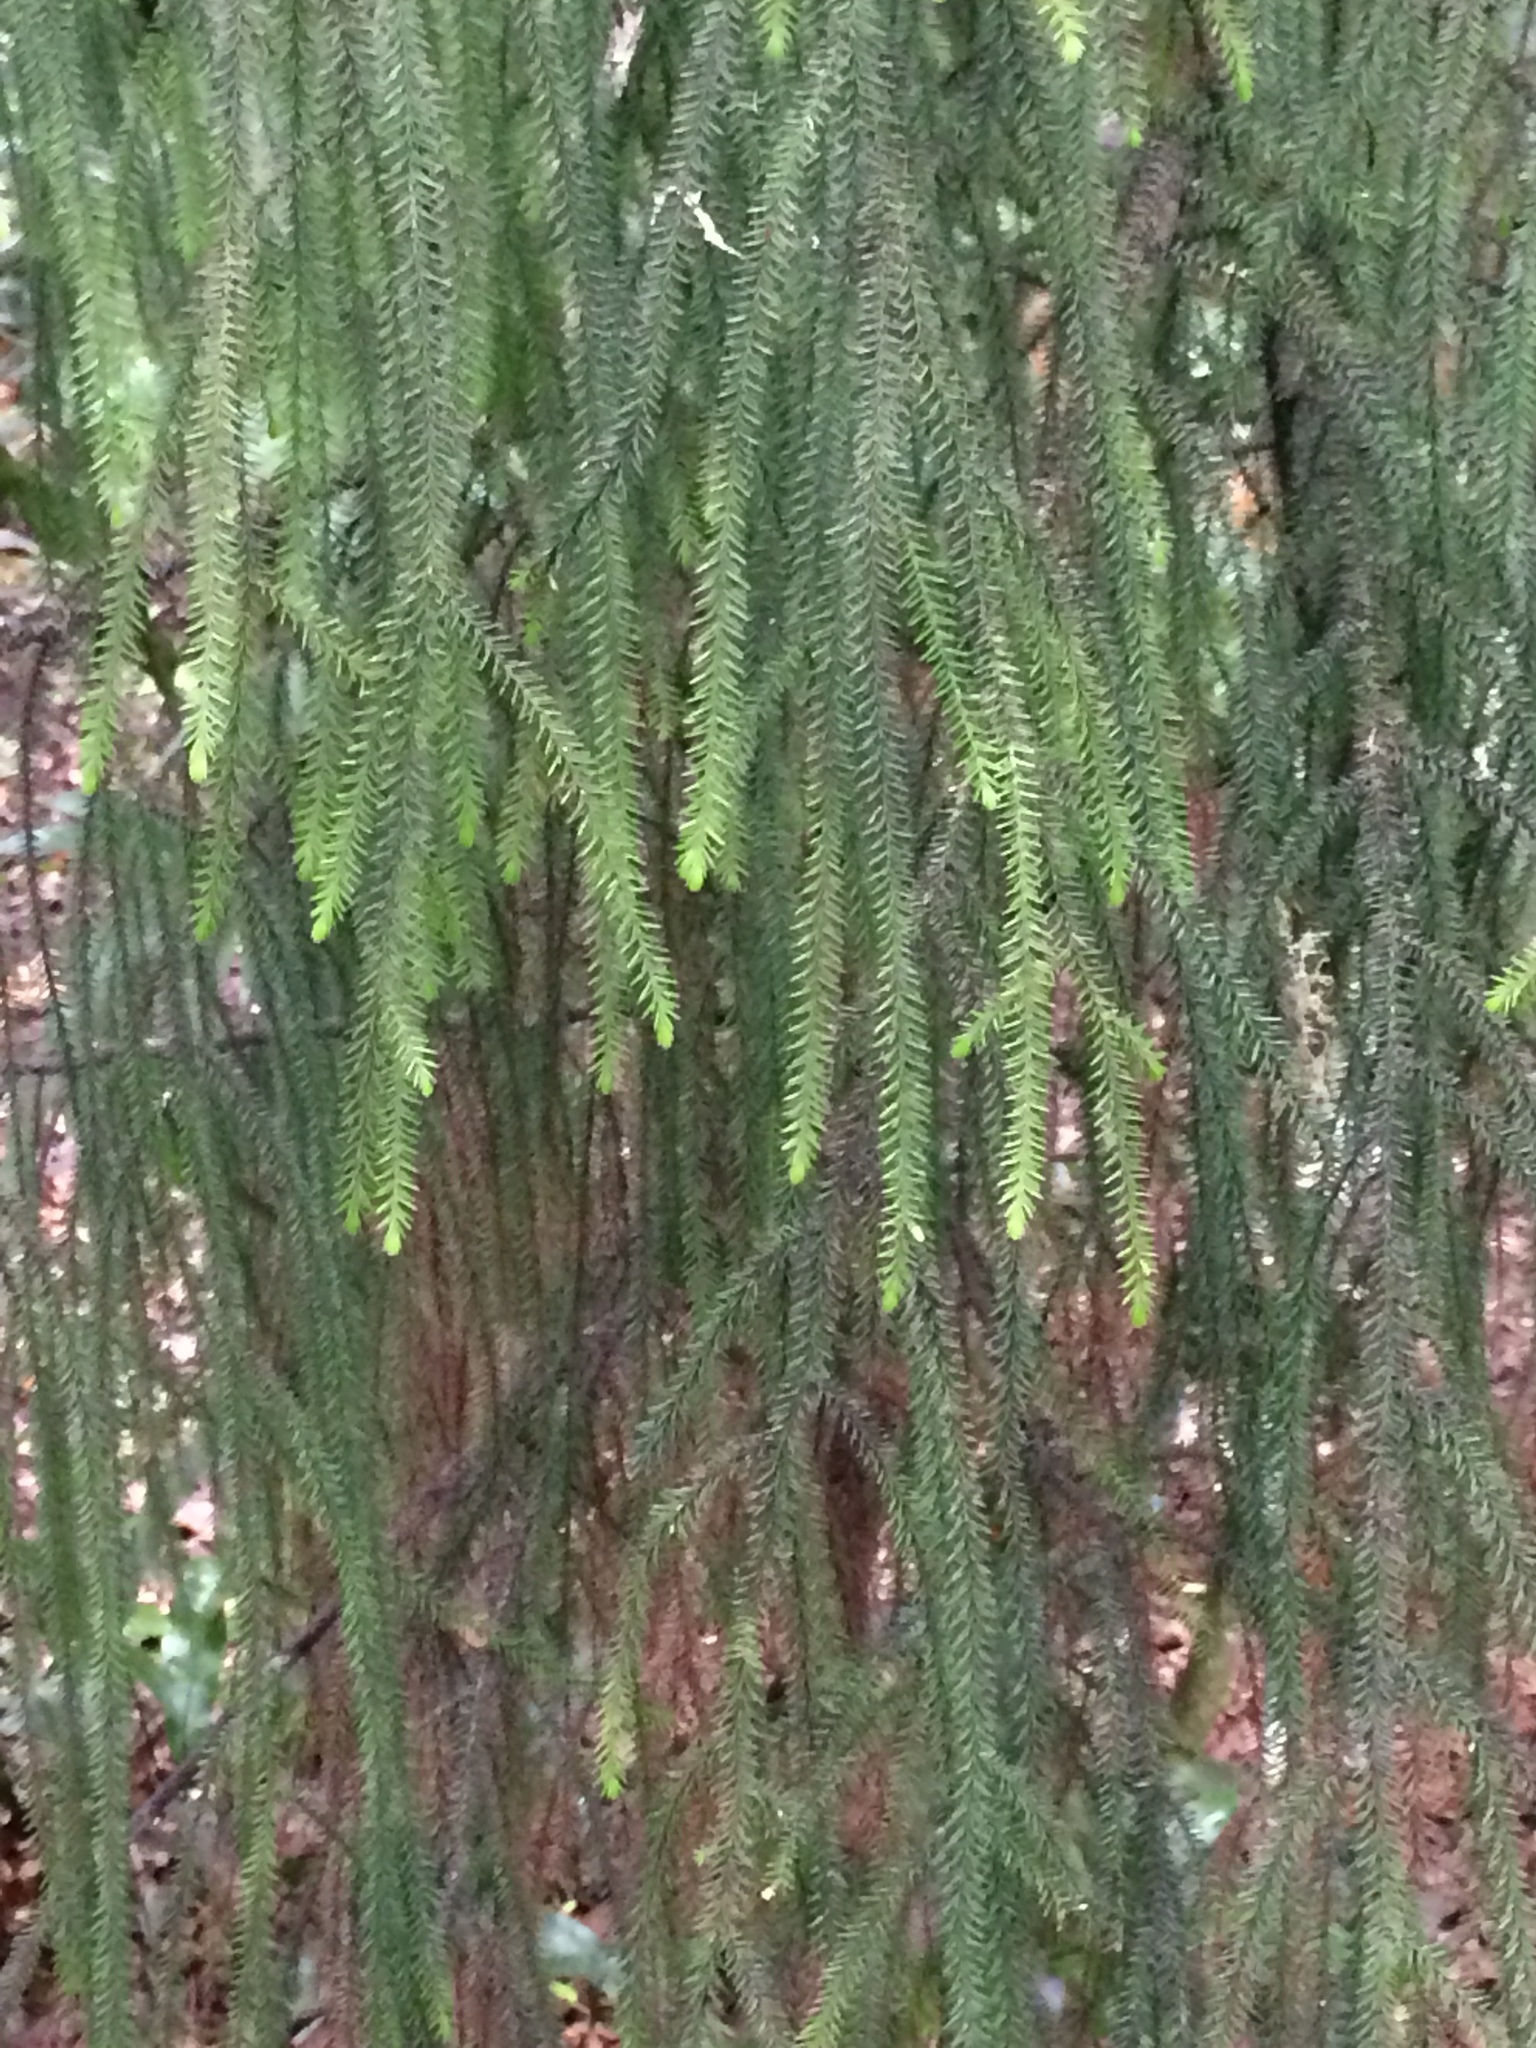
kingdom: Plantae
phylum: Tracheophyta
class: Pinopsida
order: Pinales
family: Podocarpaceae
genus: Dacrydium
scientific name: Dacrydium cupressinum
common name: Red pine
